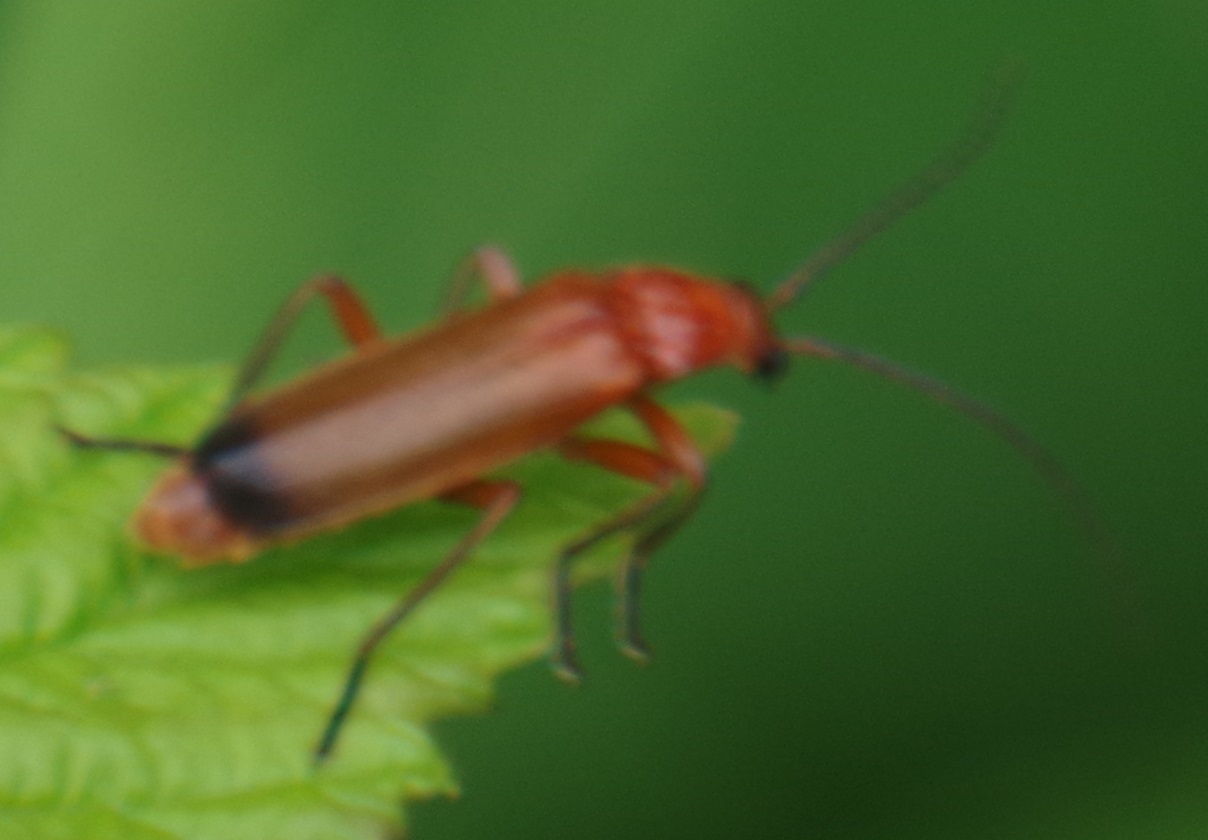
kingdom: Animalia
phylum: Arthropoda
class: Insecta
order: Coleoptera
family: Cantharidae
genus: Rhagonycha
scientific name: Rhagonycha fulva
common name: Common red soldier beetle
